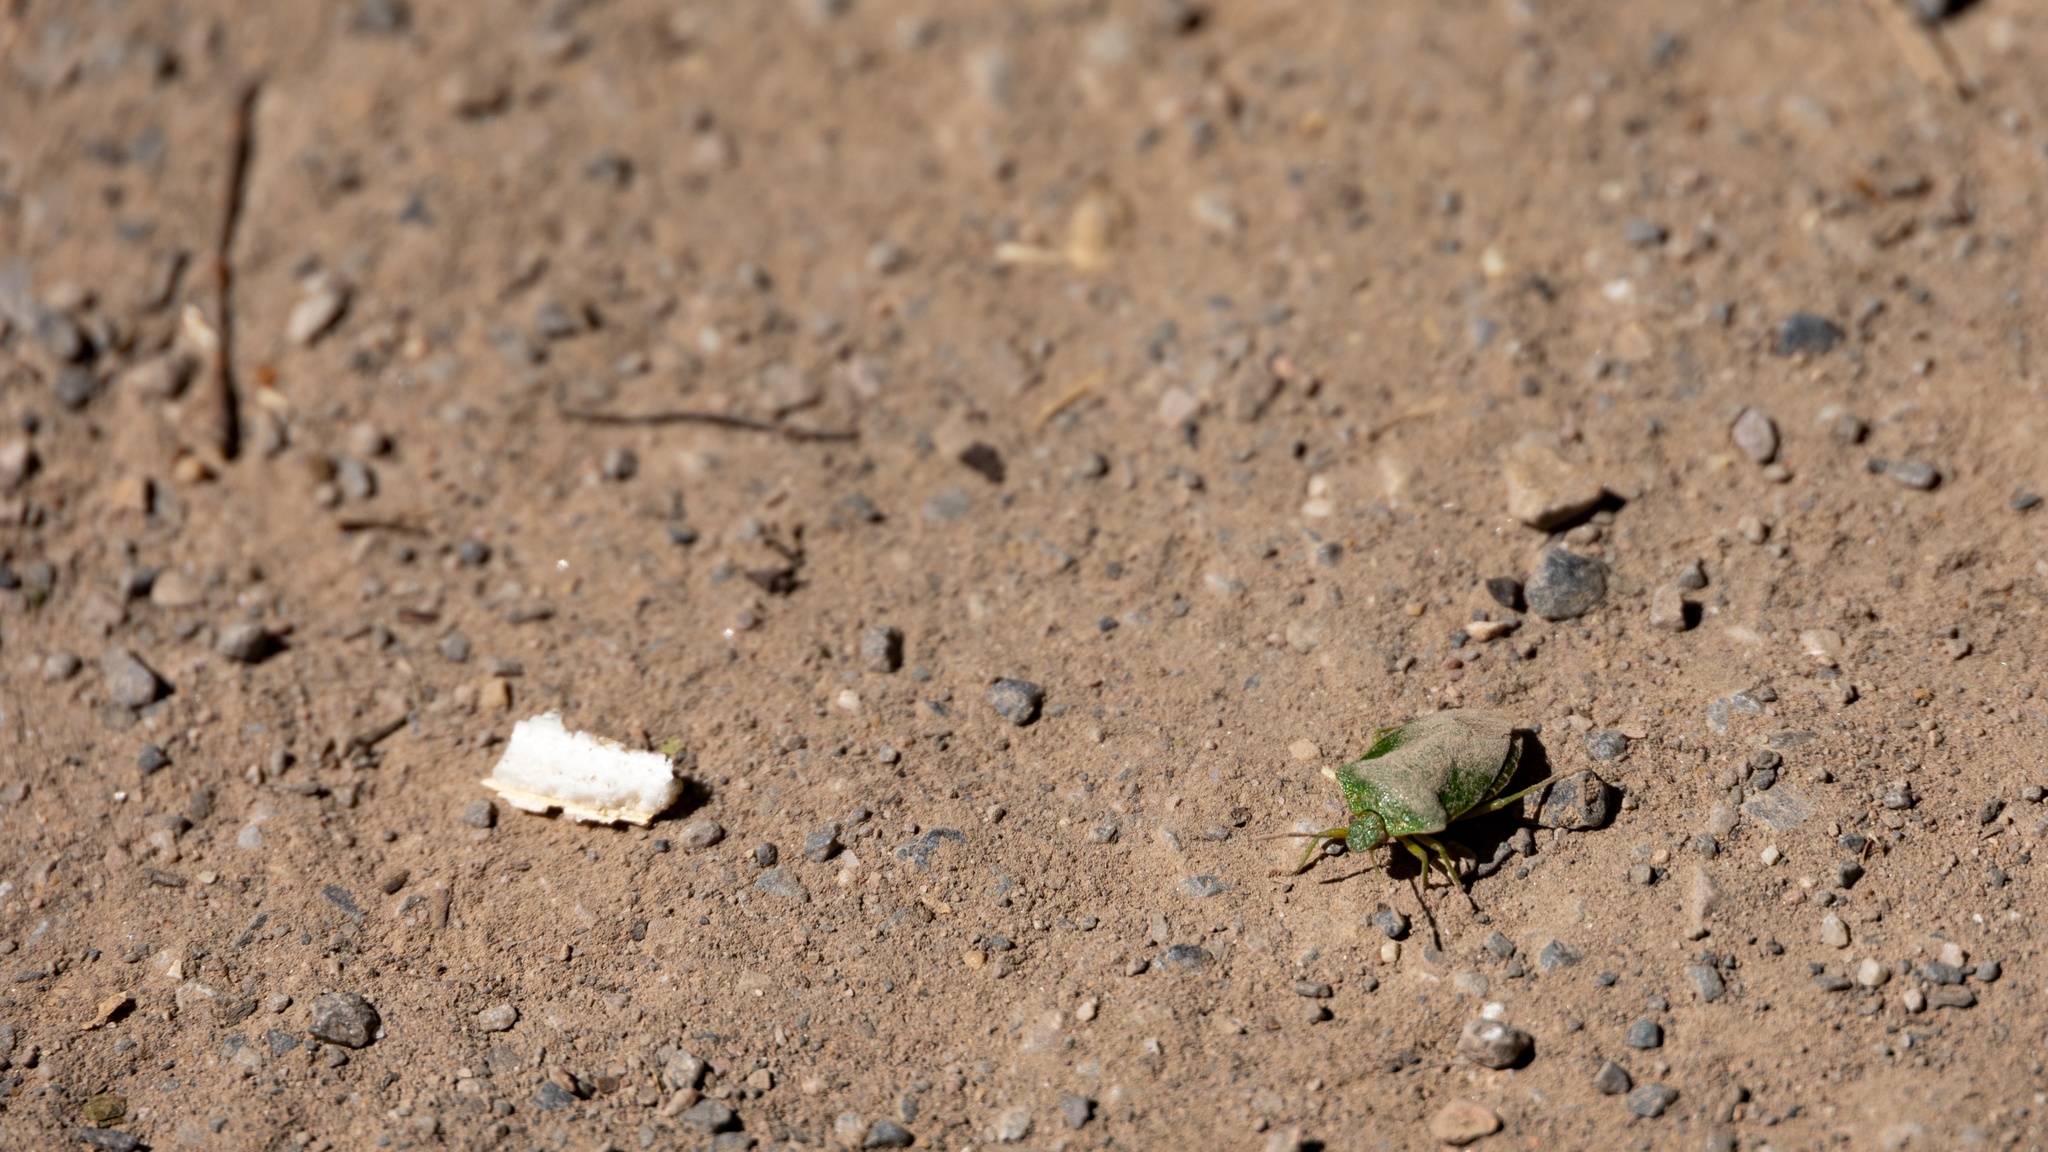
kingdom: Animalia
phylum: Arthropoda
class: Insecta
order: Hemiptera
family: Pentatomidae
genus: Palomena
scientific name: Palomena prasina
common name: Green shieldbug
